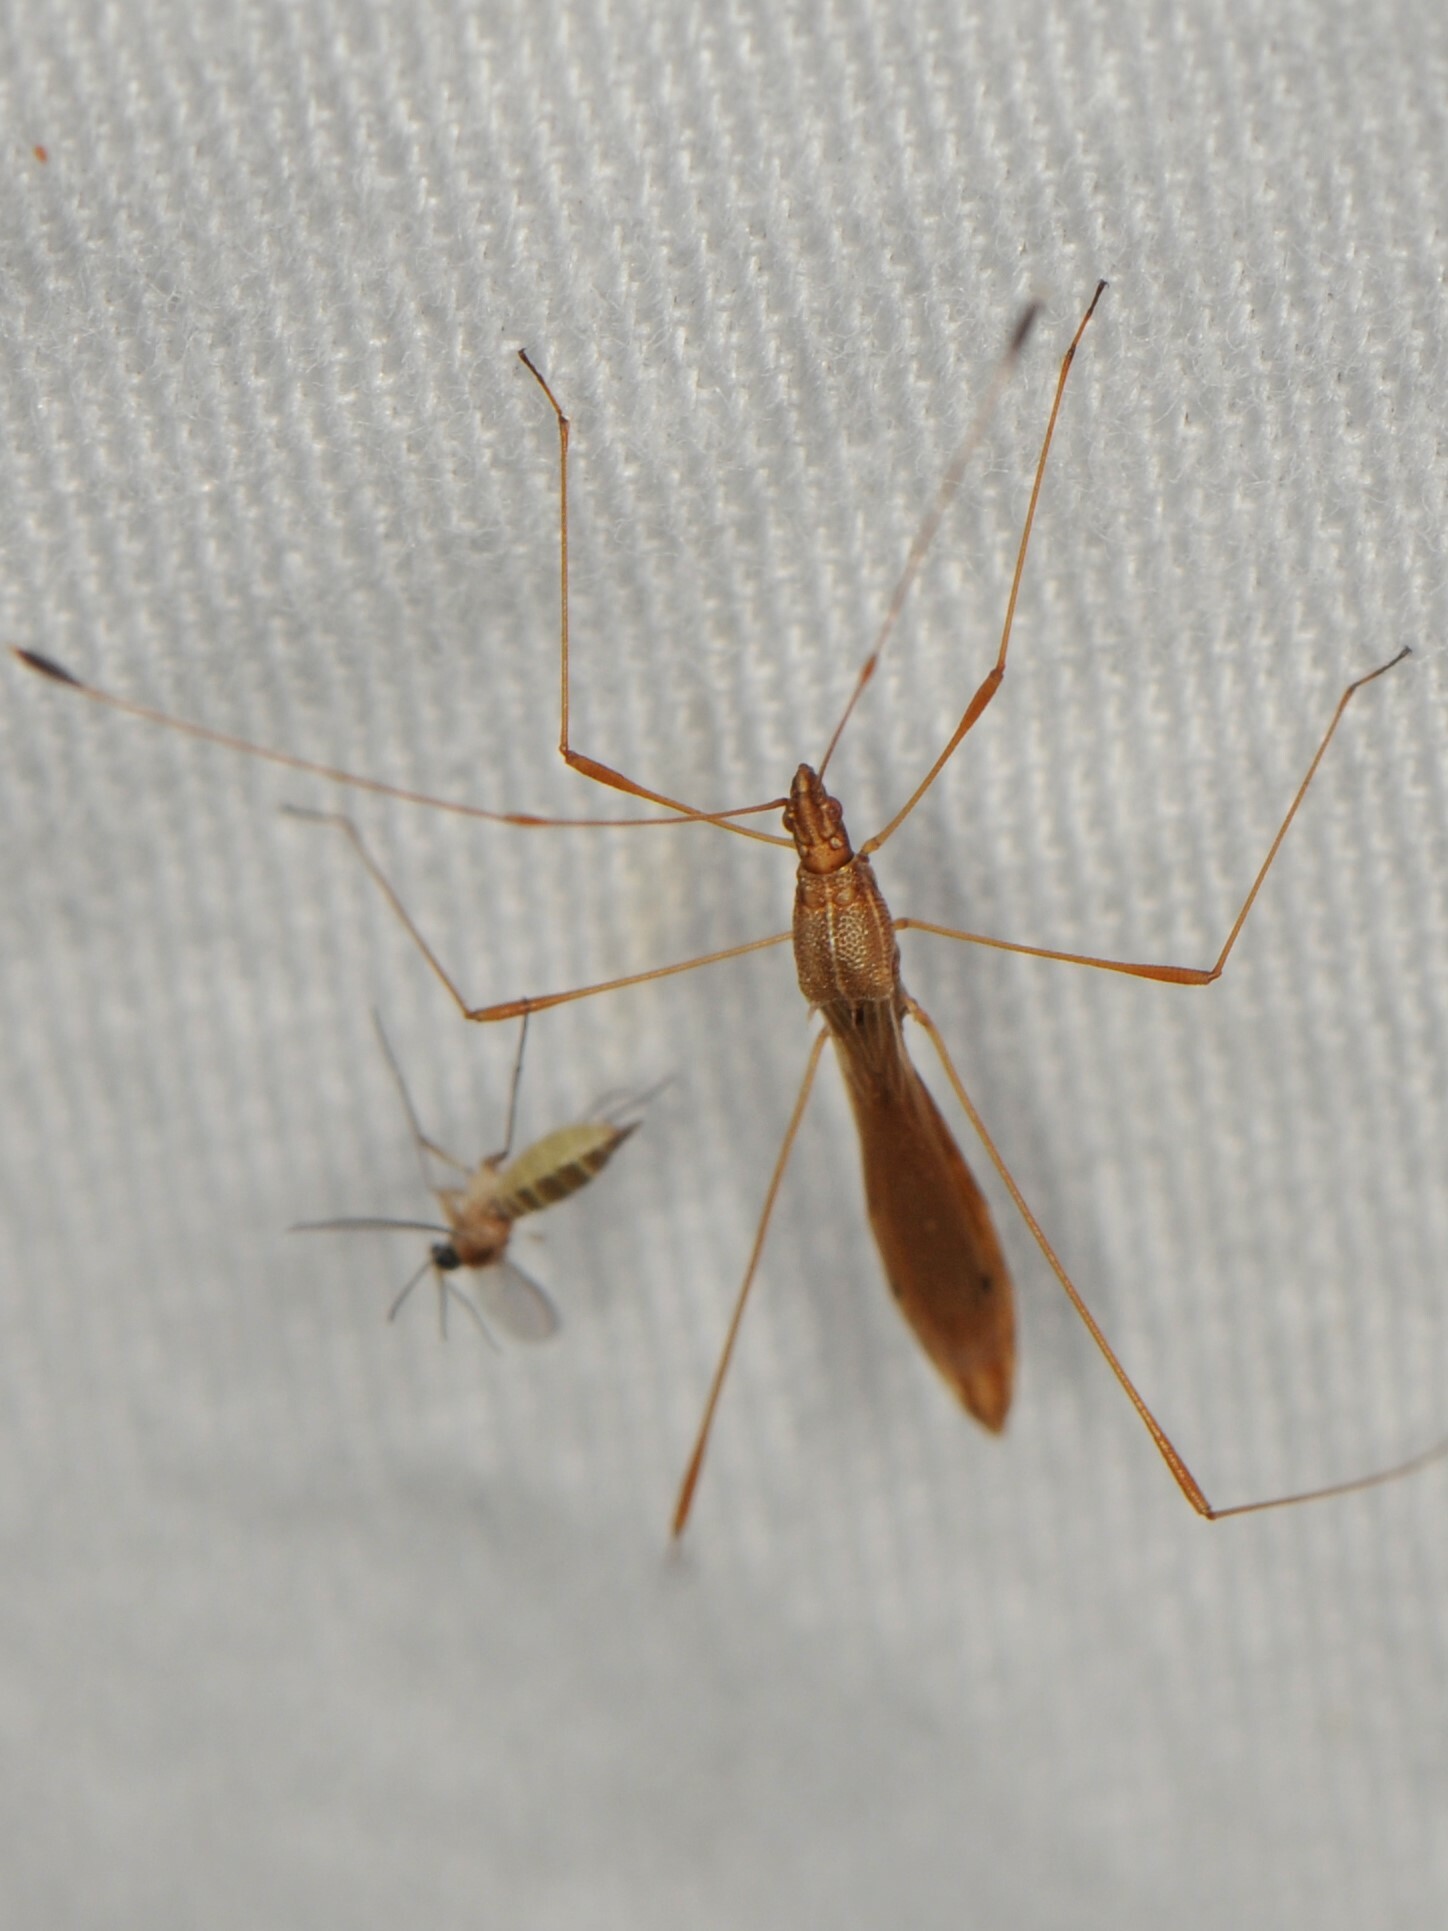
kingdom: Animalia
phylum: Arthropoda
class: Insecta
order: Hemiptera
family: Berytidae
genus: Jalysus
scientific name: Jalysus
